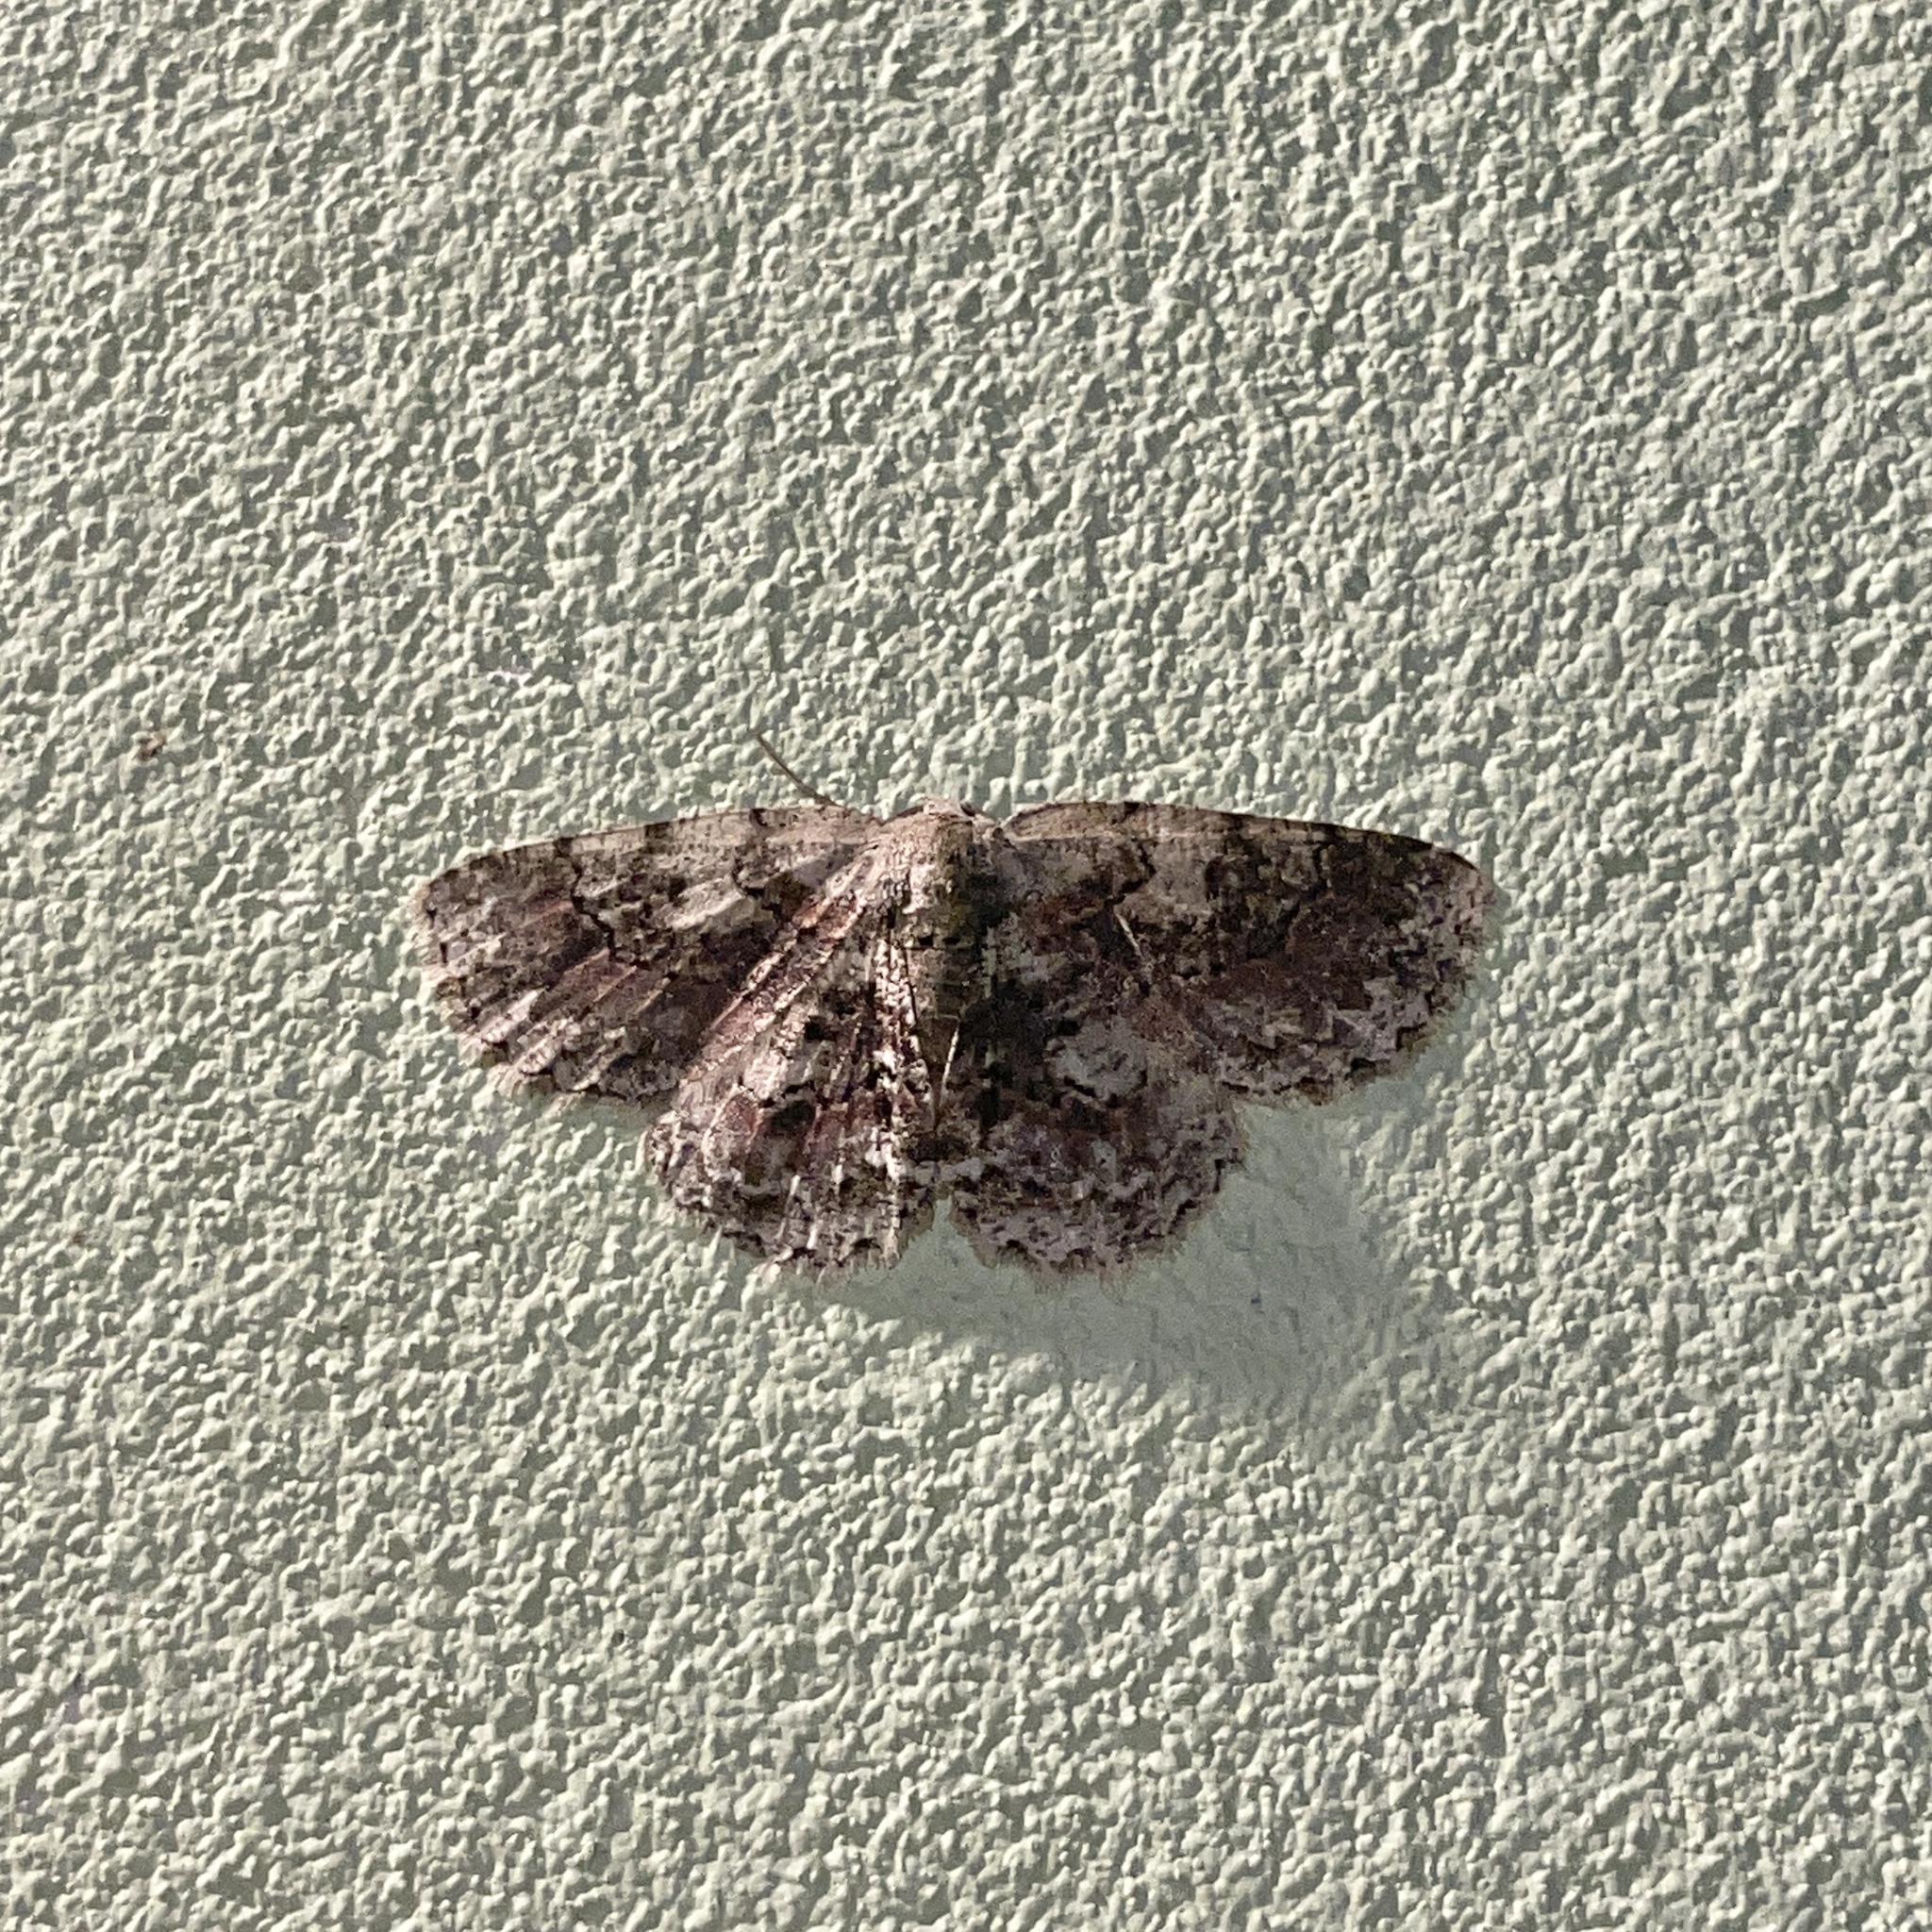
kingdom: Animalia
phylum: Arthropoda
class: Insecta
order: Lepidoptera
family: Geometridae
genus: Bryoptera
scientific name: Bryoptera hypomelas
